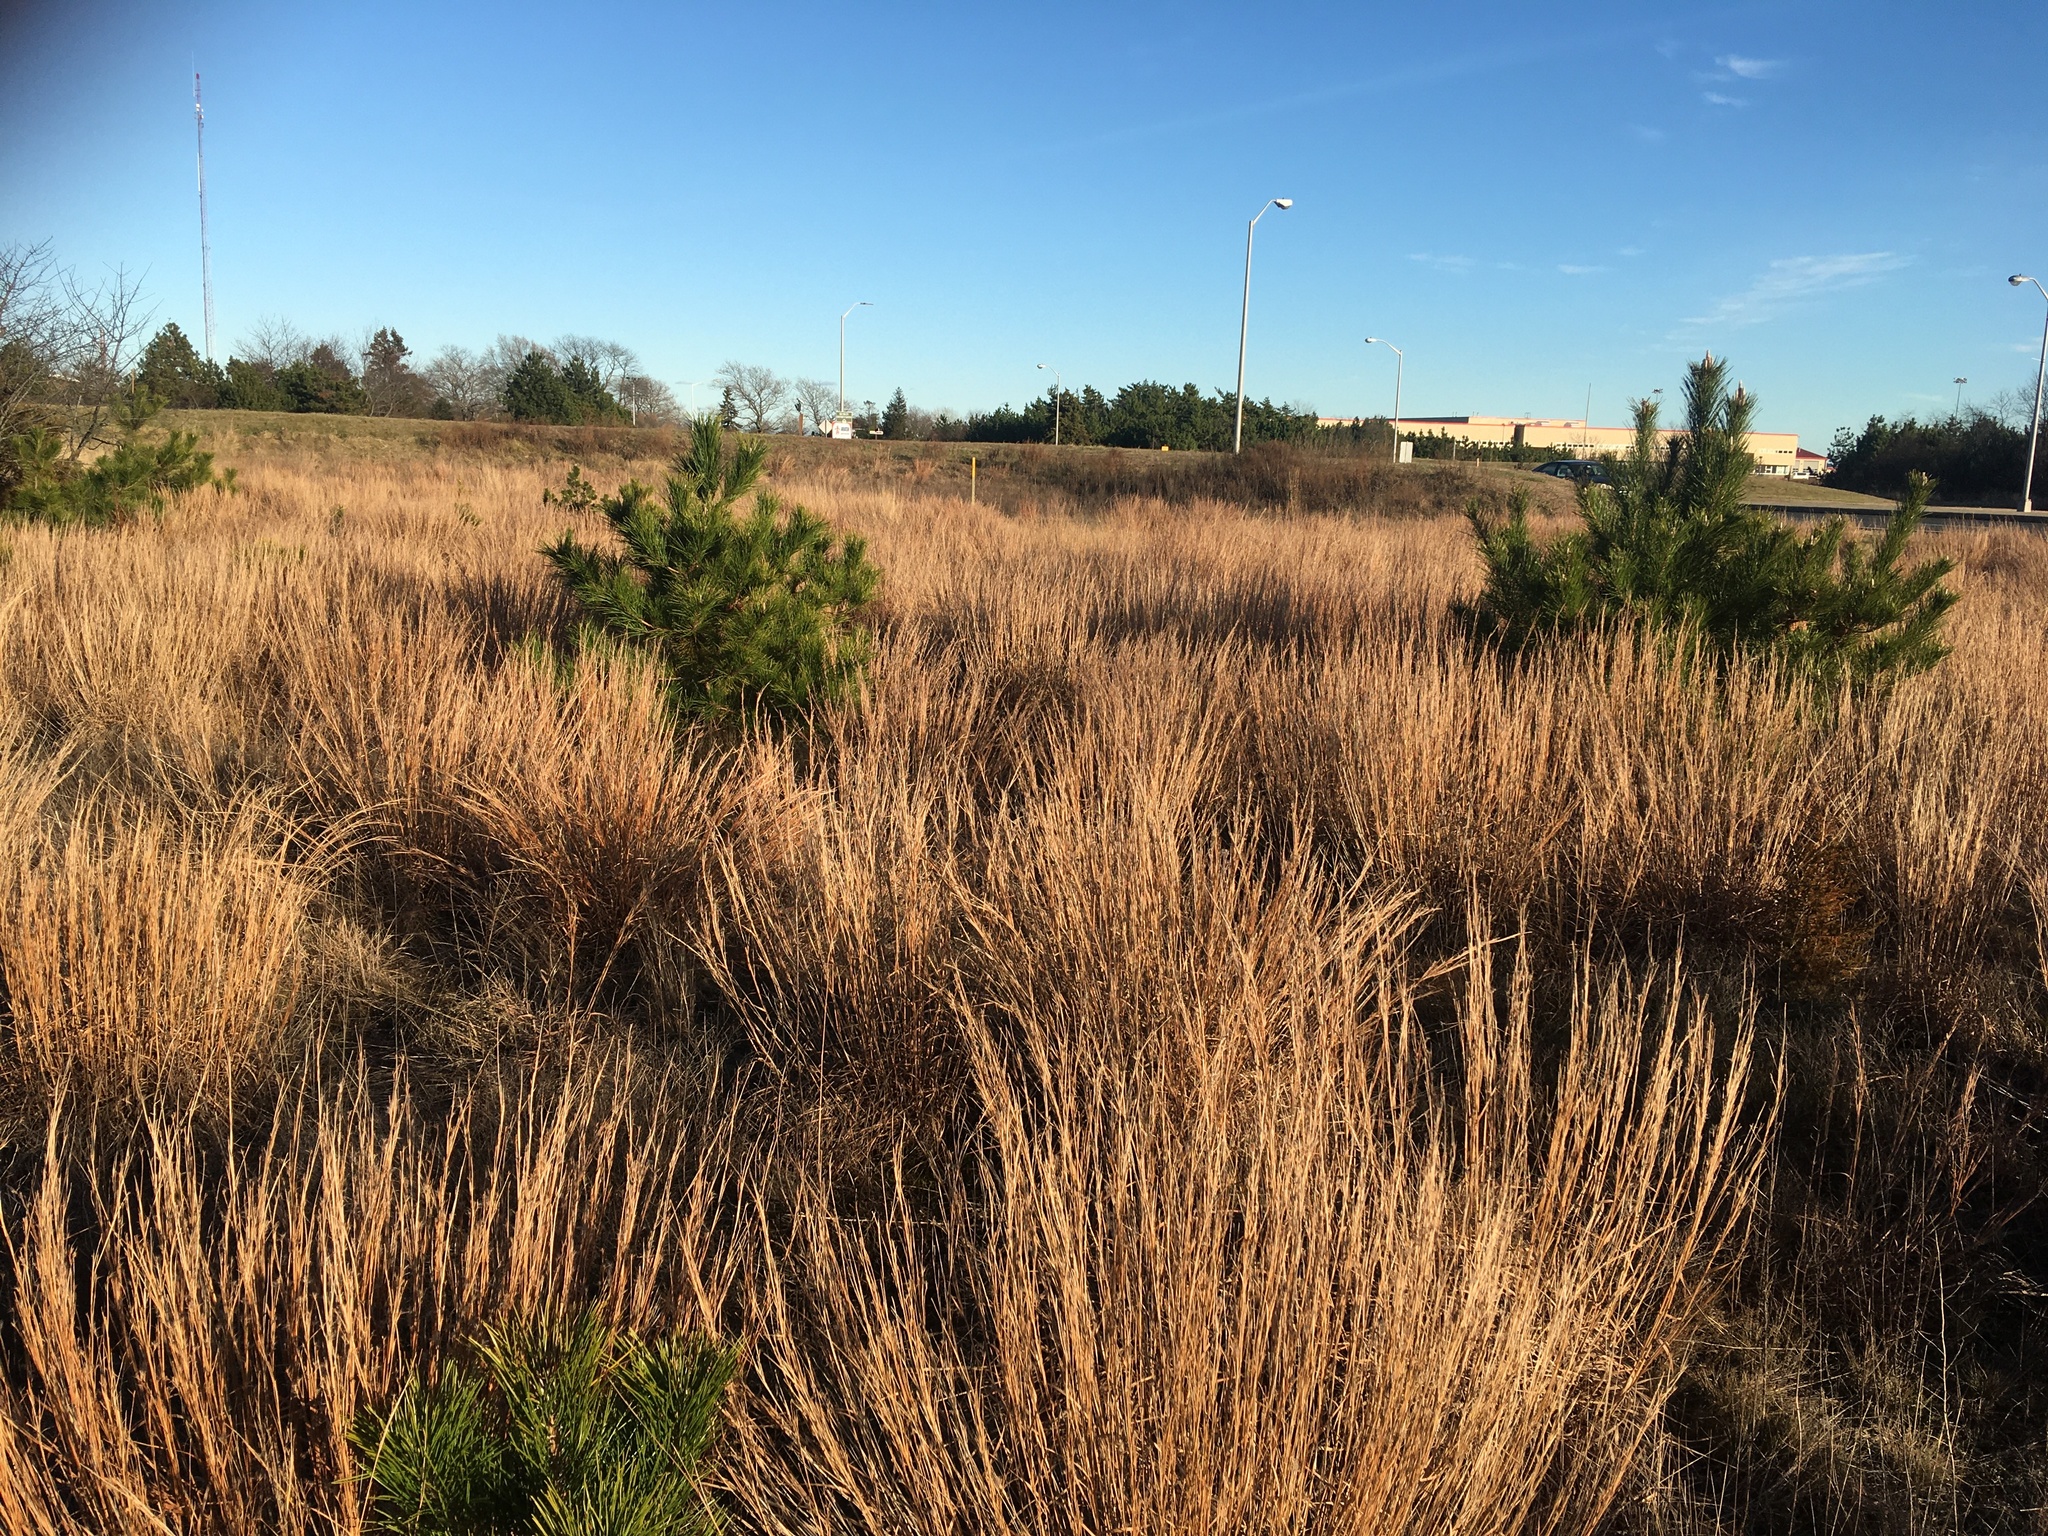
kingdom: Plantae
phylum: Tracheophyta
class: Liliopsida
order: Poales
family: Poaceae
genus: Schizachyrium
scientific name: Schizachyrium scoparium
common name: Little bluestem
